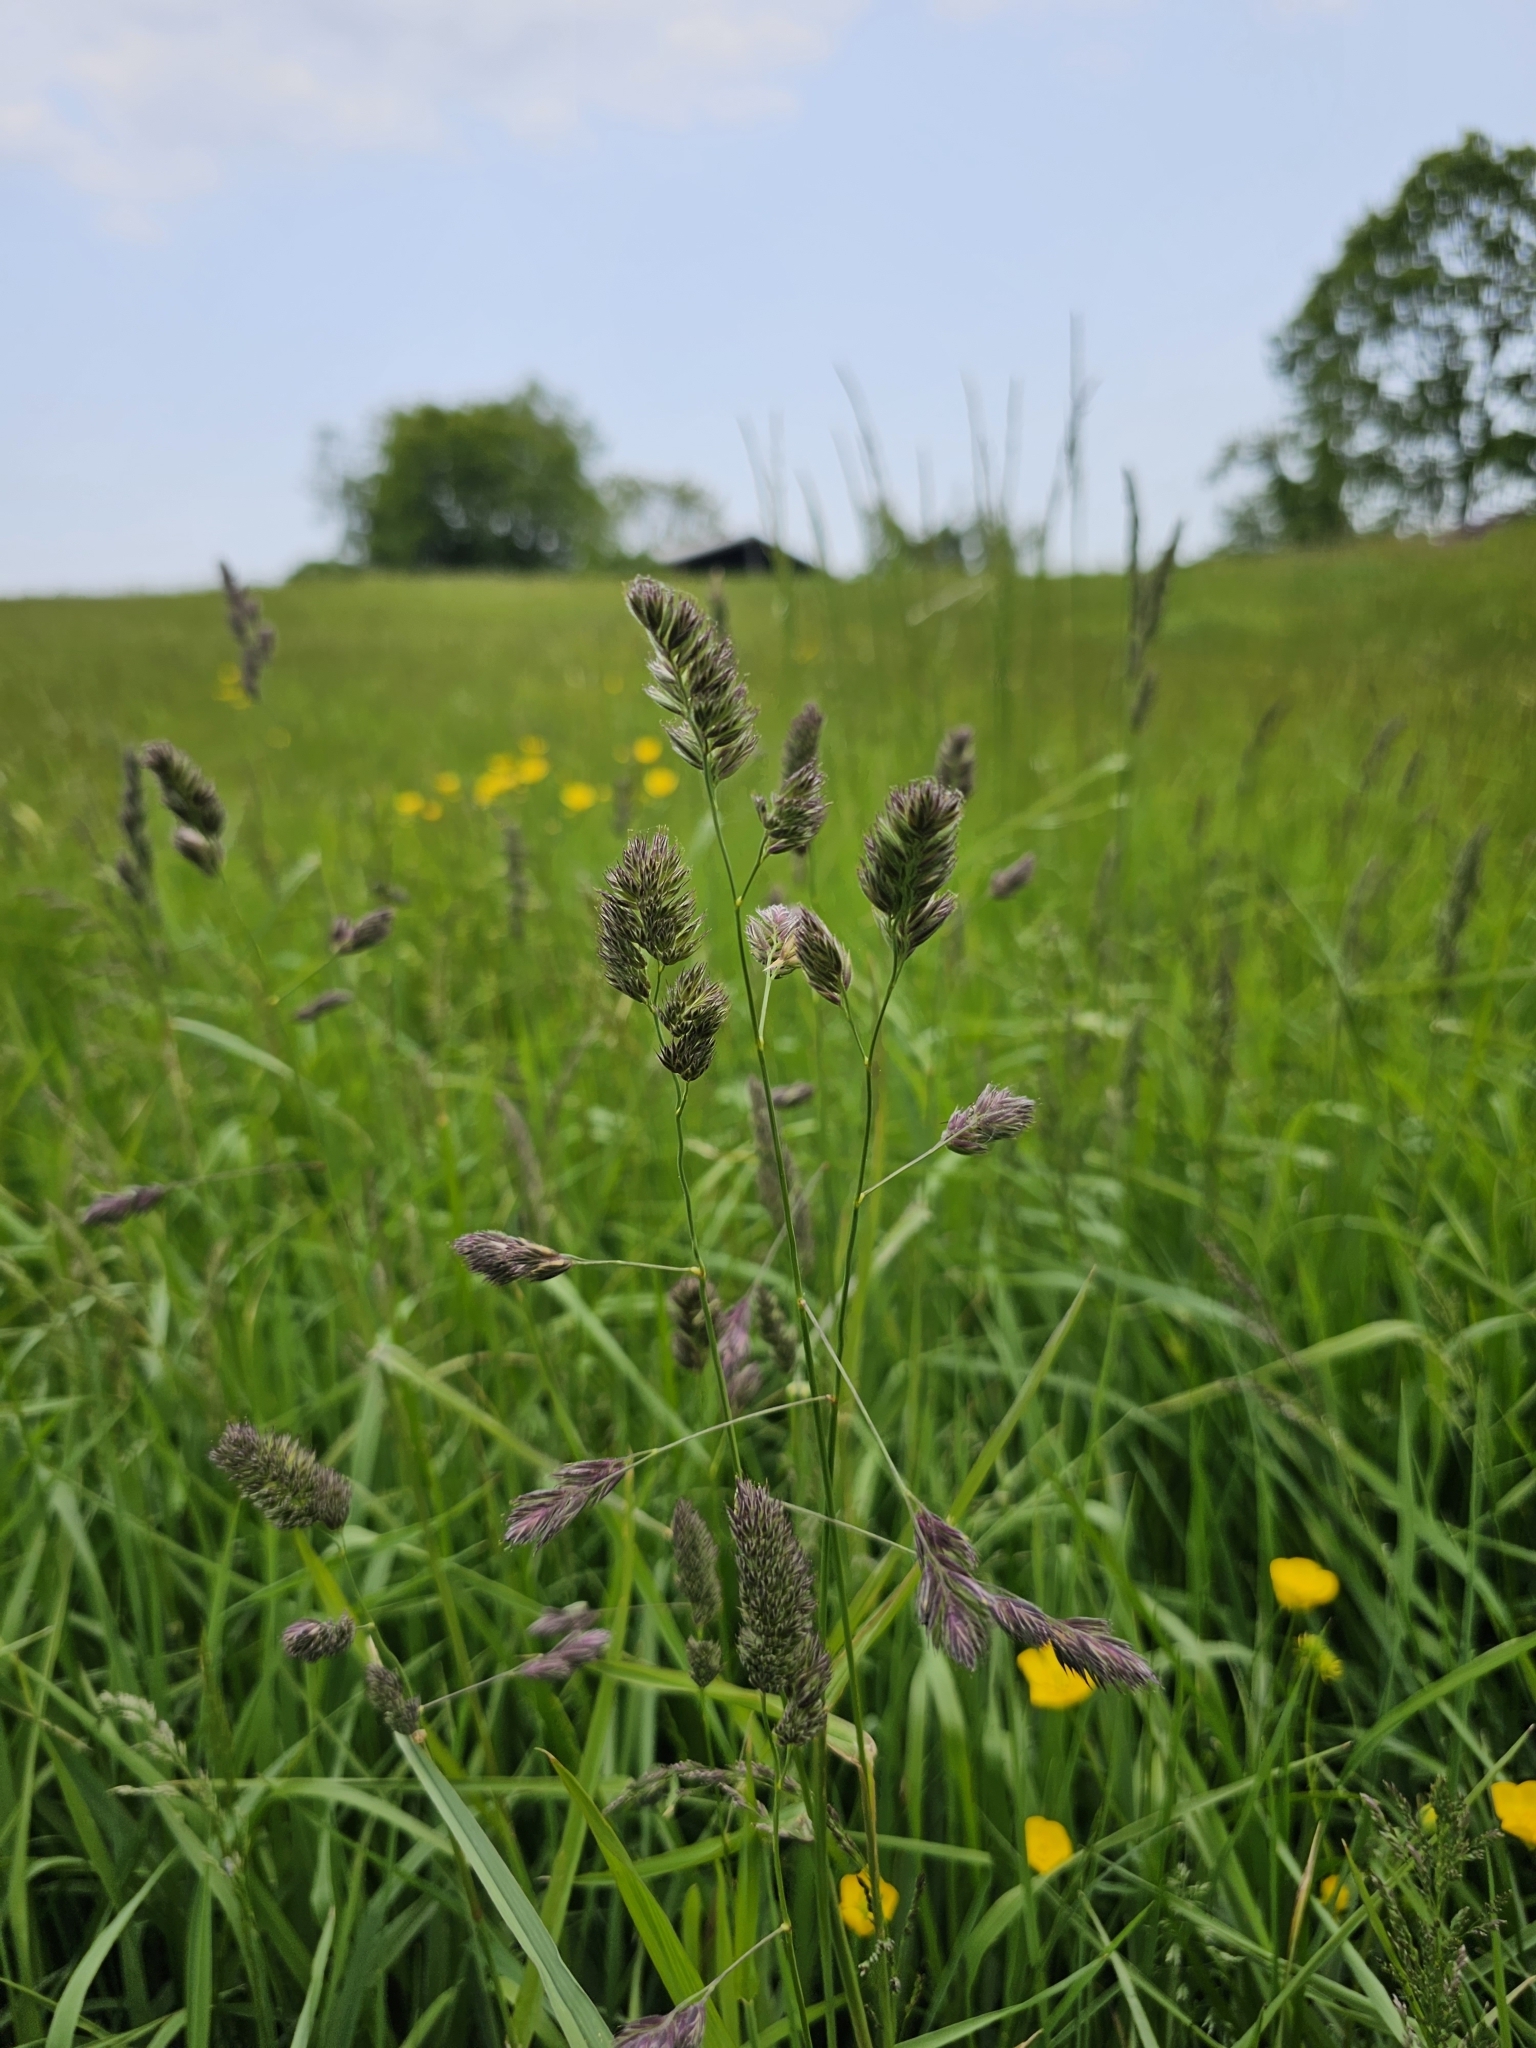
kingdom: Plantae
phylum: Tracheophyta
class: Liliopsida
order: Poales
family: Poaceae
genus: Dactylis
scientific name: Dactylis glomerata
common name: Orchardgrass
